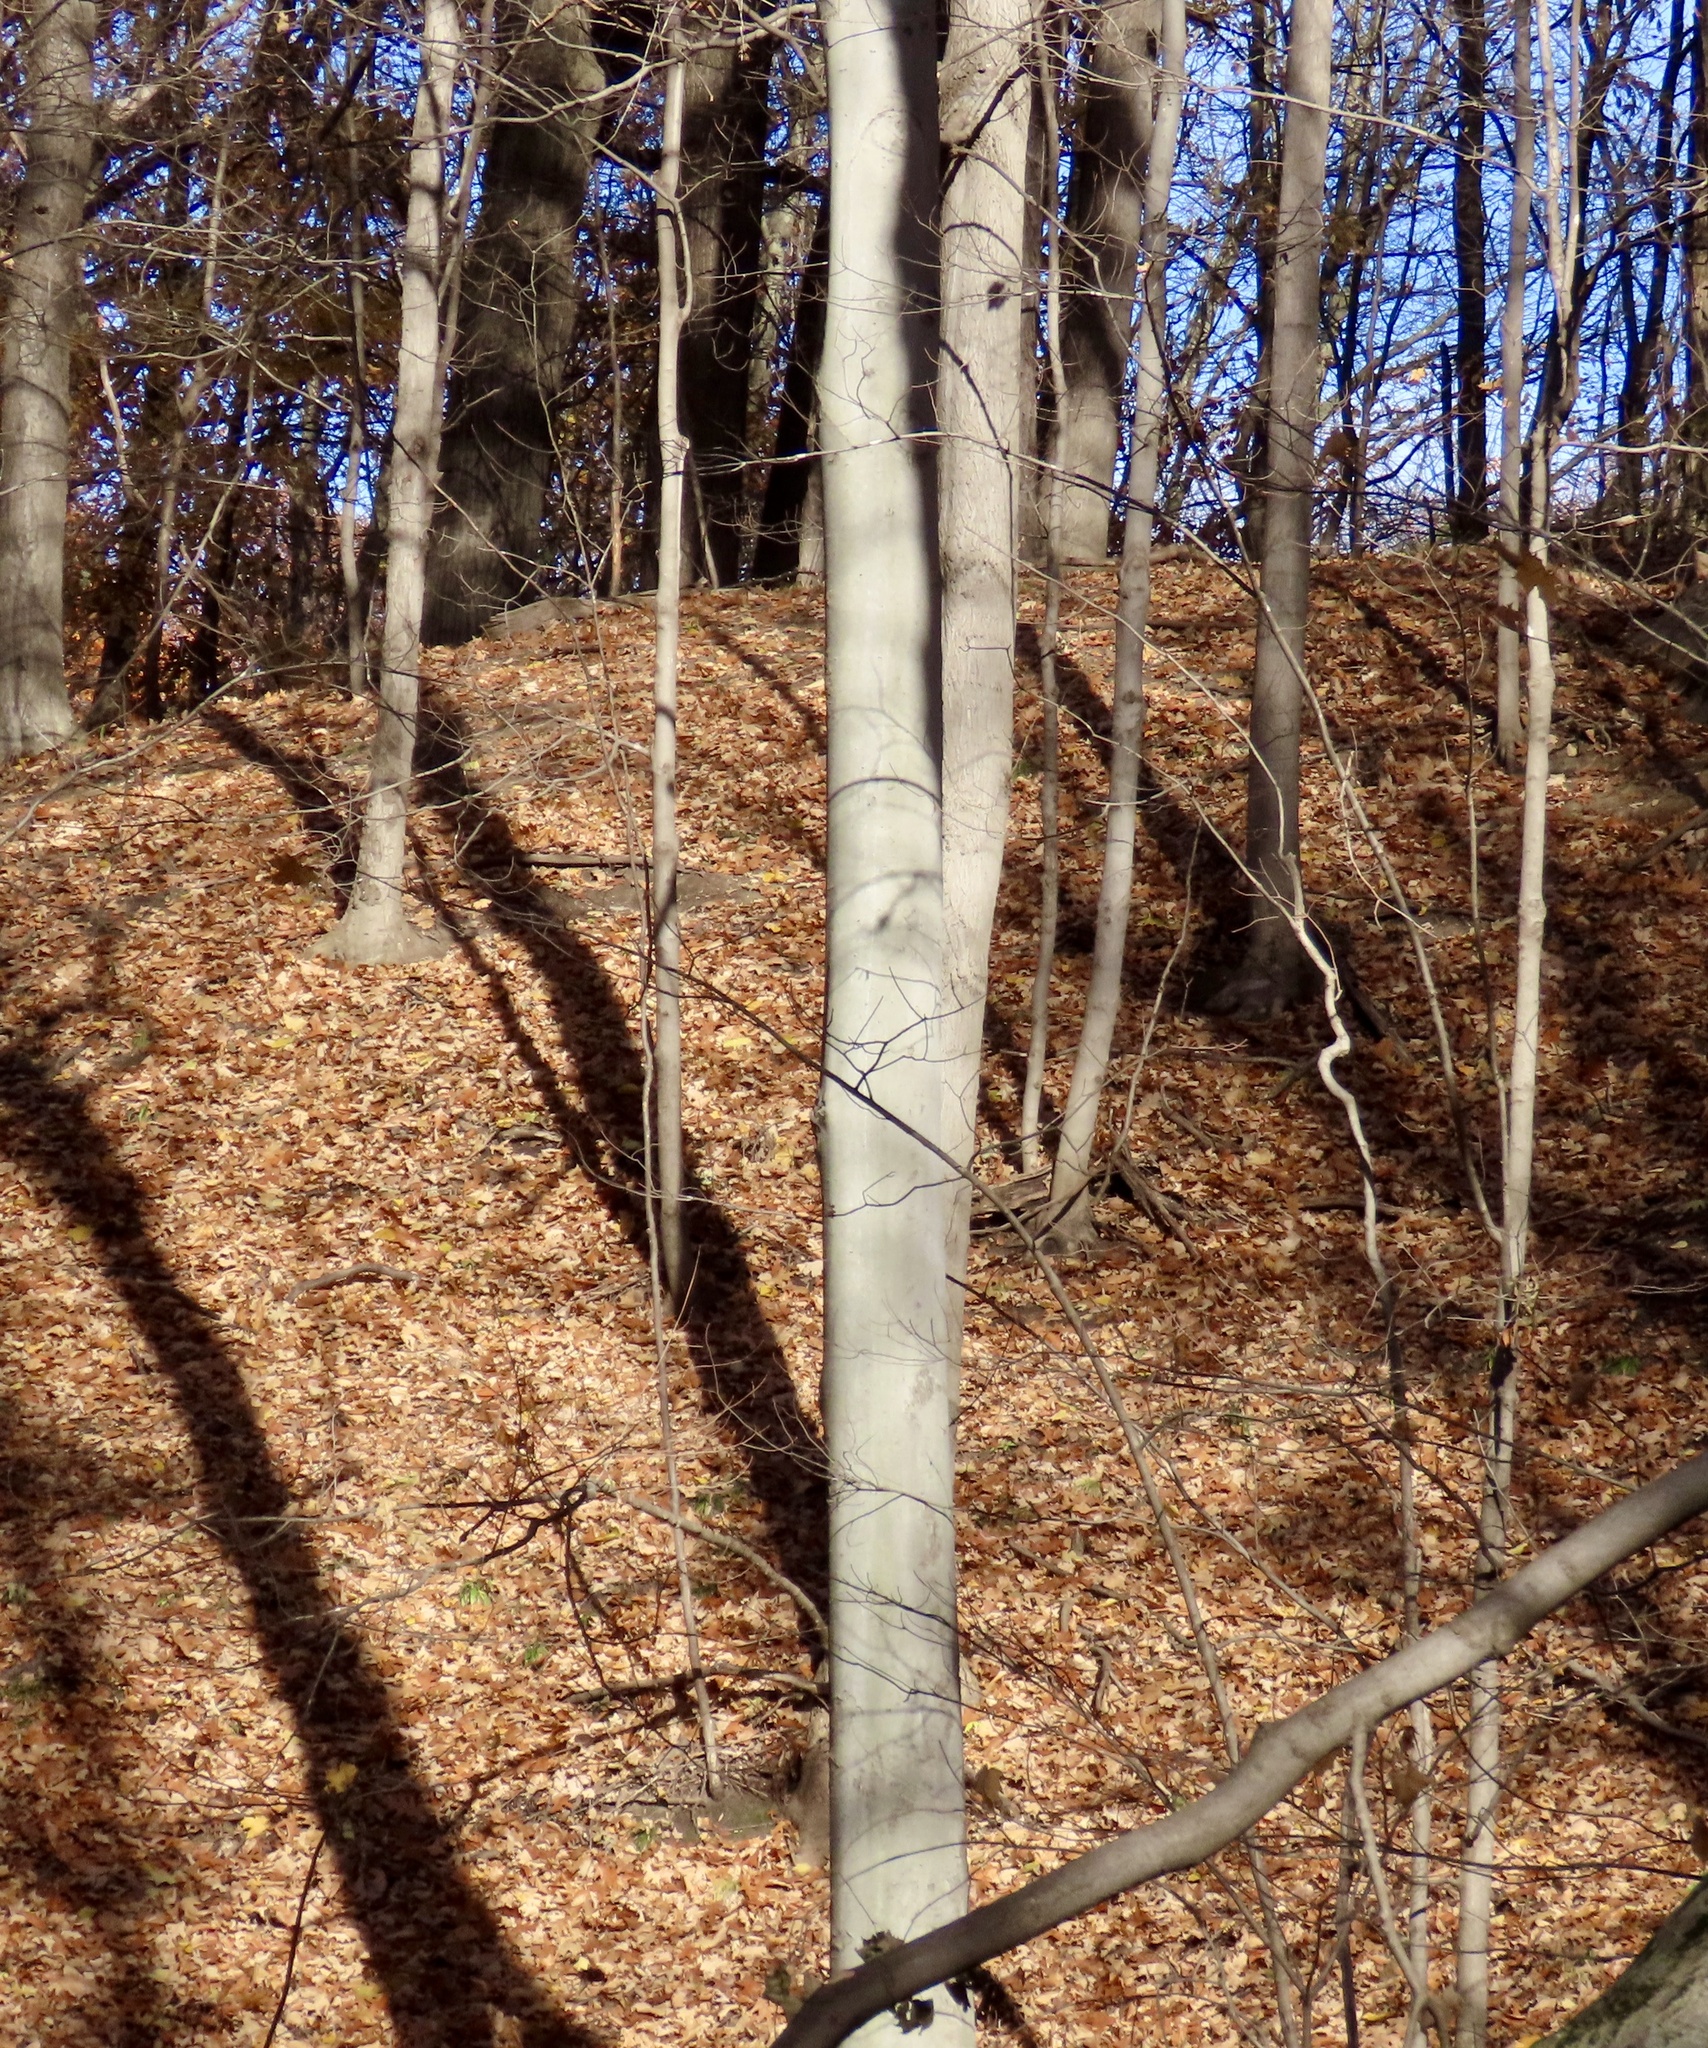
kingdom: Plantae
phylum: Tracheophyta
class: Magnoliopsida
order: Fagales
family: Fagaceae
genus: Fagus
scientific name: Fagus grandifolia
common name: American beech
